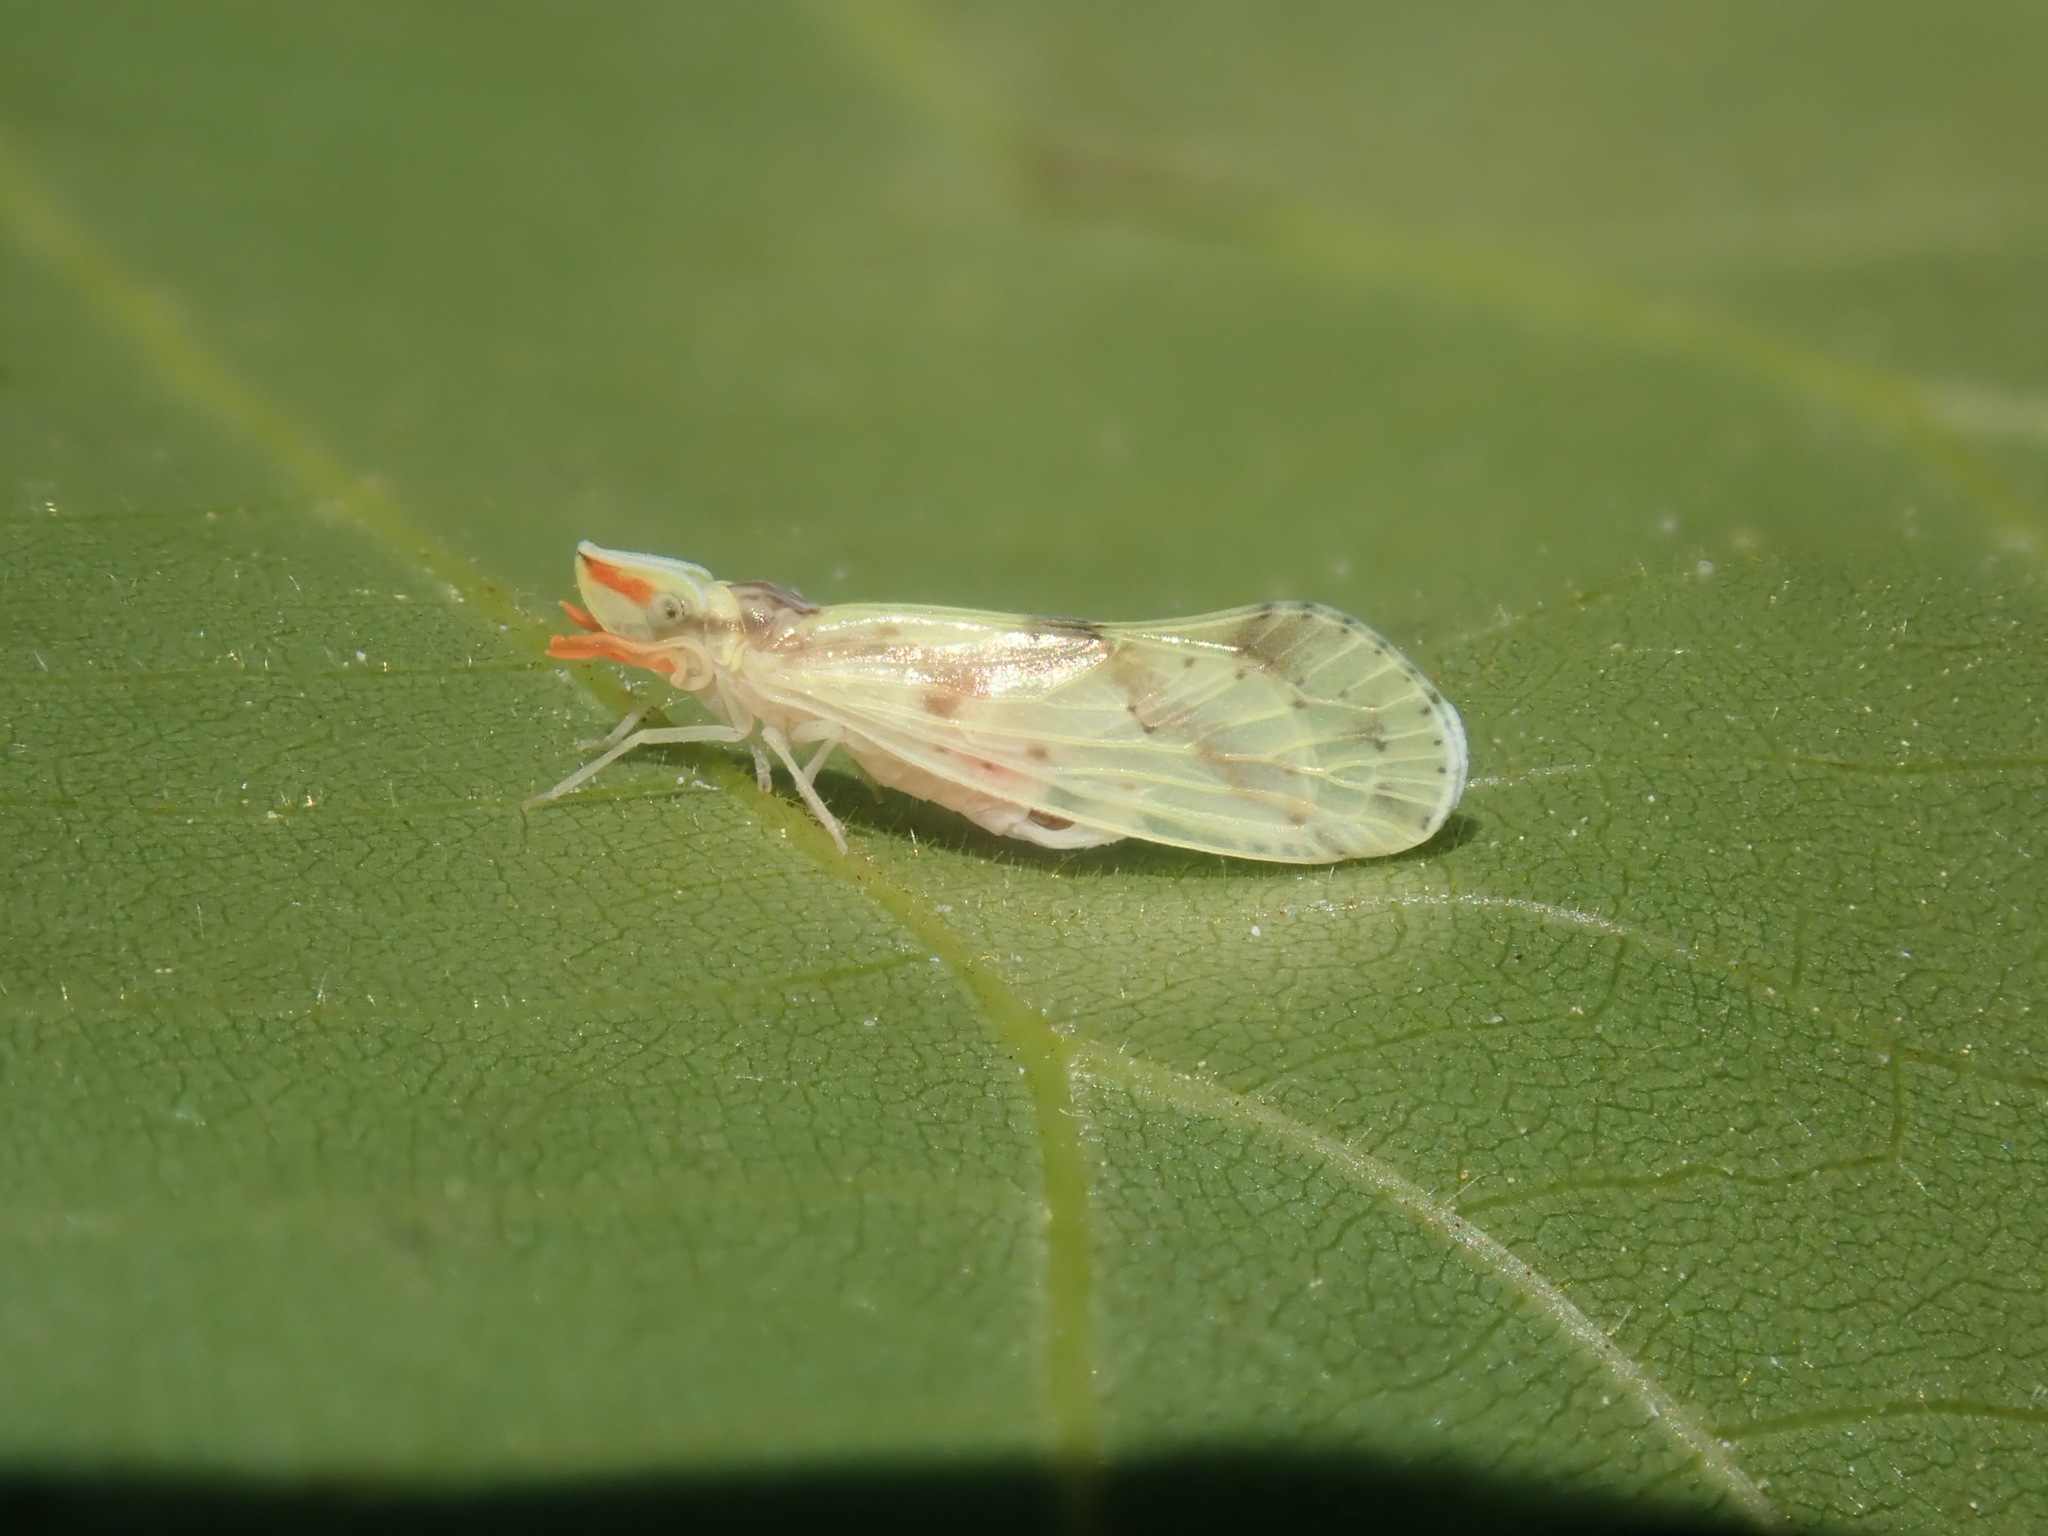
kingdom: Animalia
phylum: Arthropoda
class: Insecta
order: Hemiptera
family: Derbidae
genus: Otiocerus
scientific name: Otiocerus wolfii
